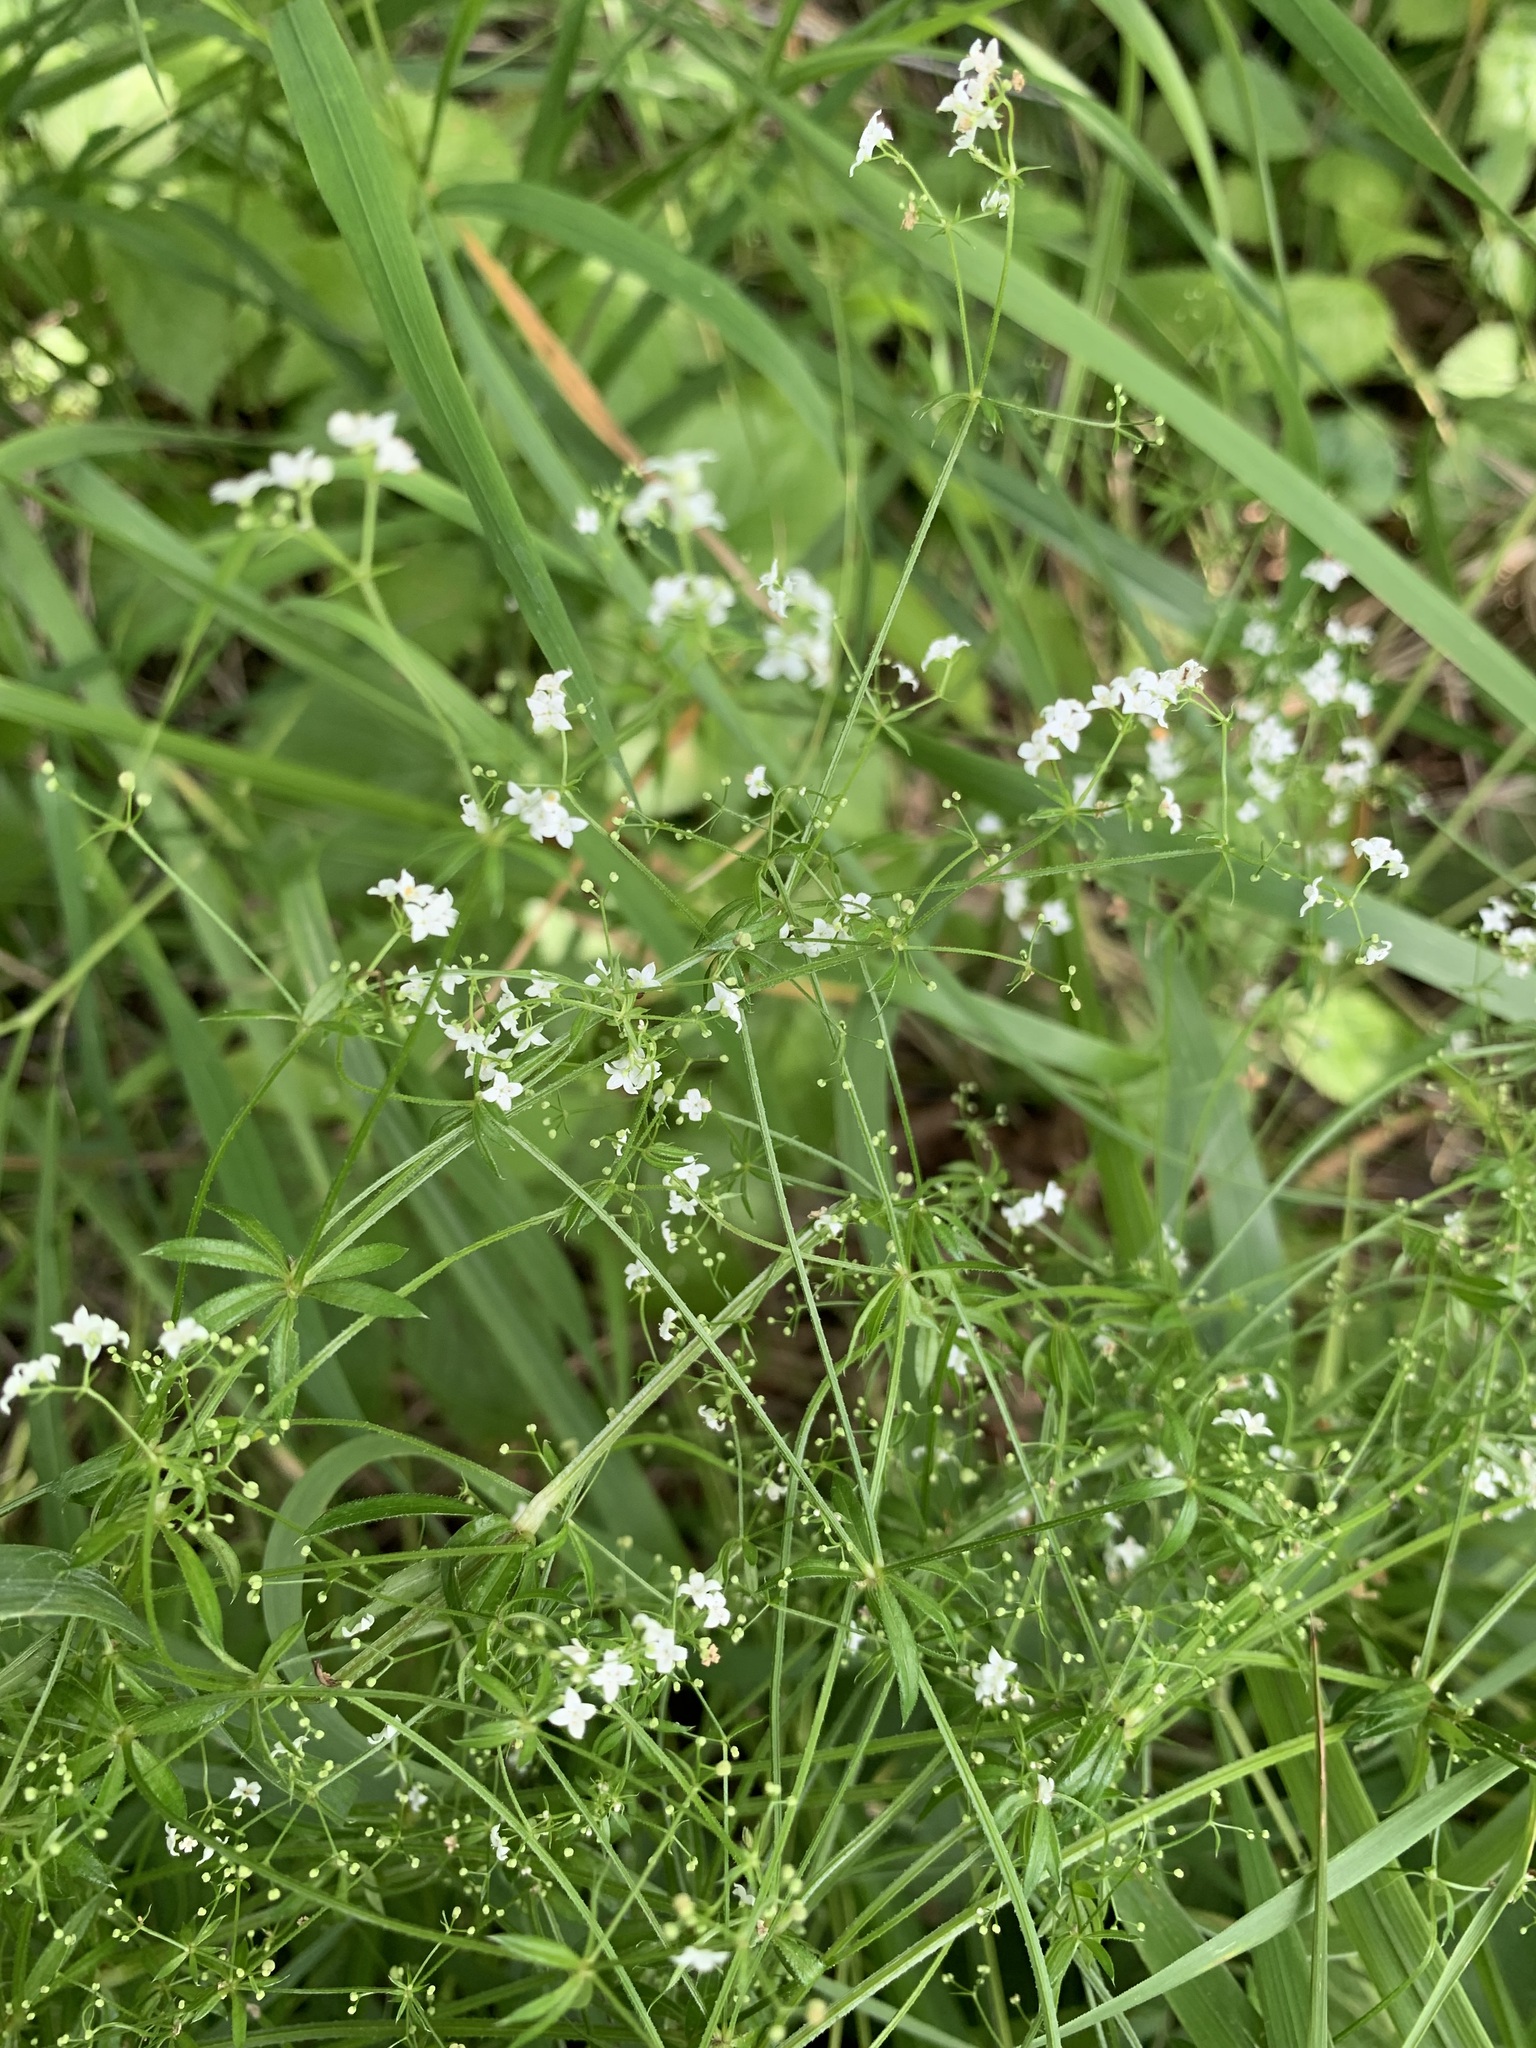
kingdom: Plantae
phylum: Tracheophyta
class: Magnoliopsida
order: Gentianales
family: Rubiaceae
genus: Galium
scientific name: Galium uliginosum
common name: Fen bedstraw
